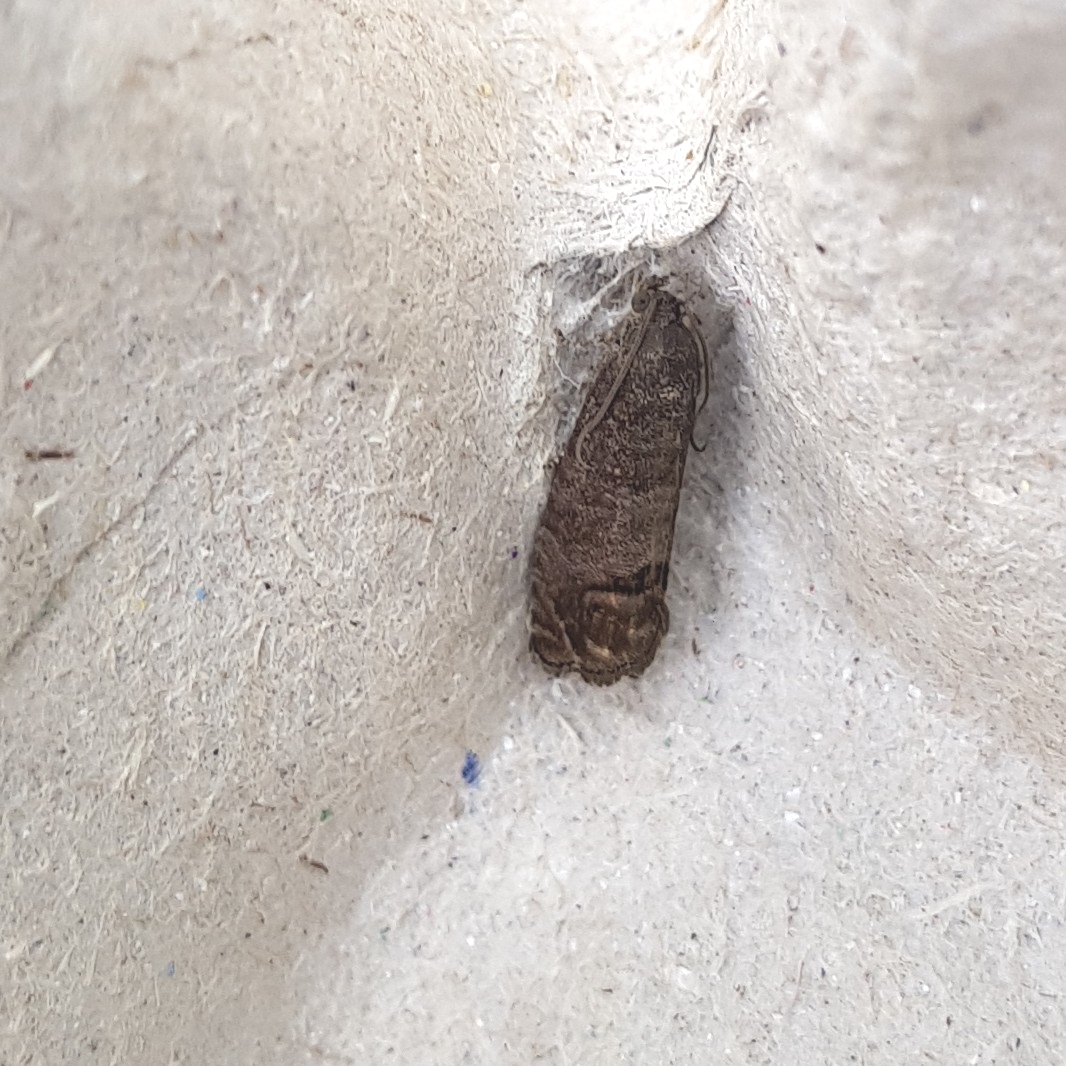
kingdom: Animalia
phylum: Arthropoda
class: Insecta
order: Lepidoptera
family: Tortricidae
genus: Cydia
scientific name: Cydia pomonella
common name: Codling moth
